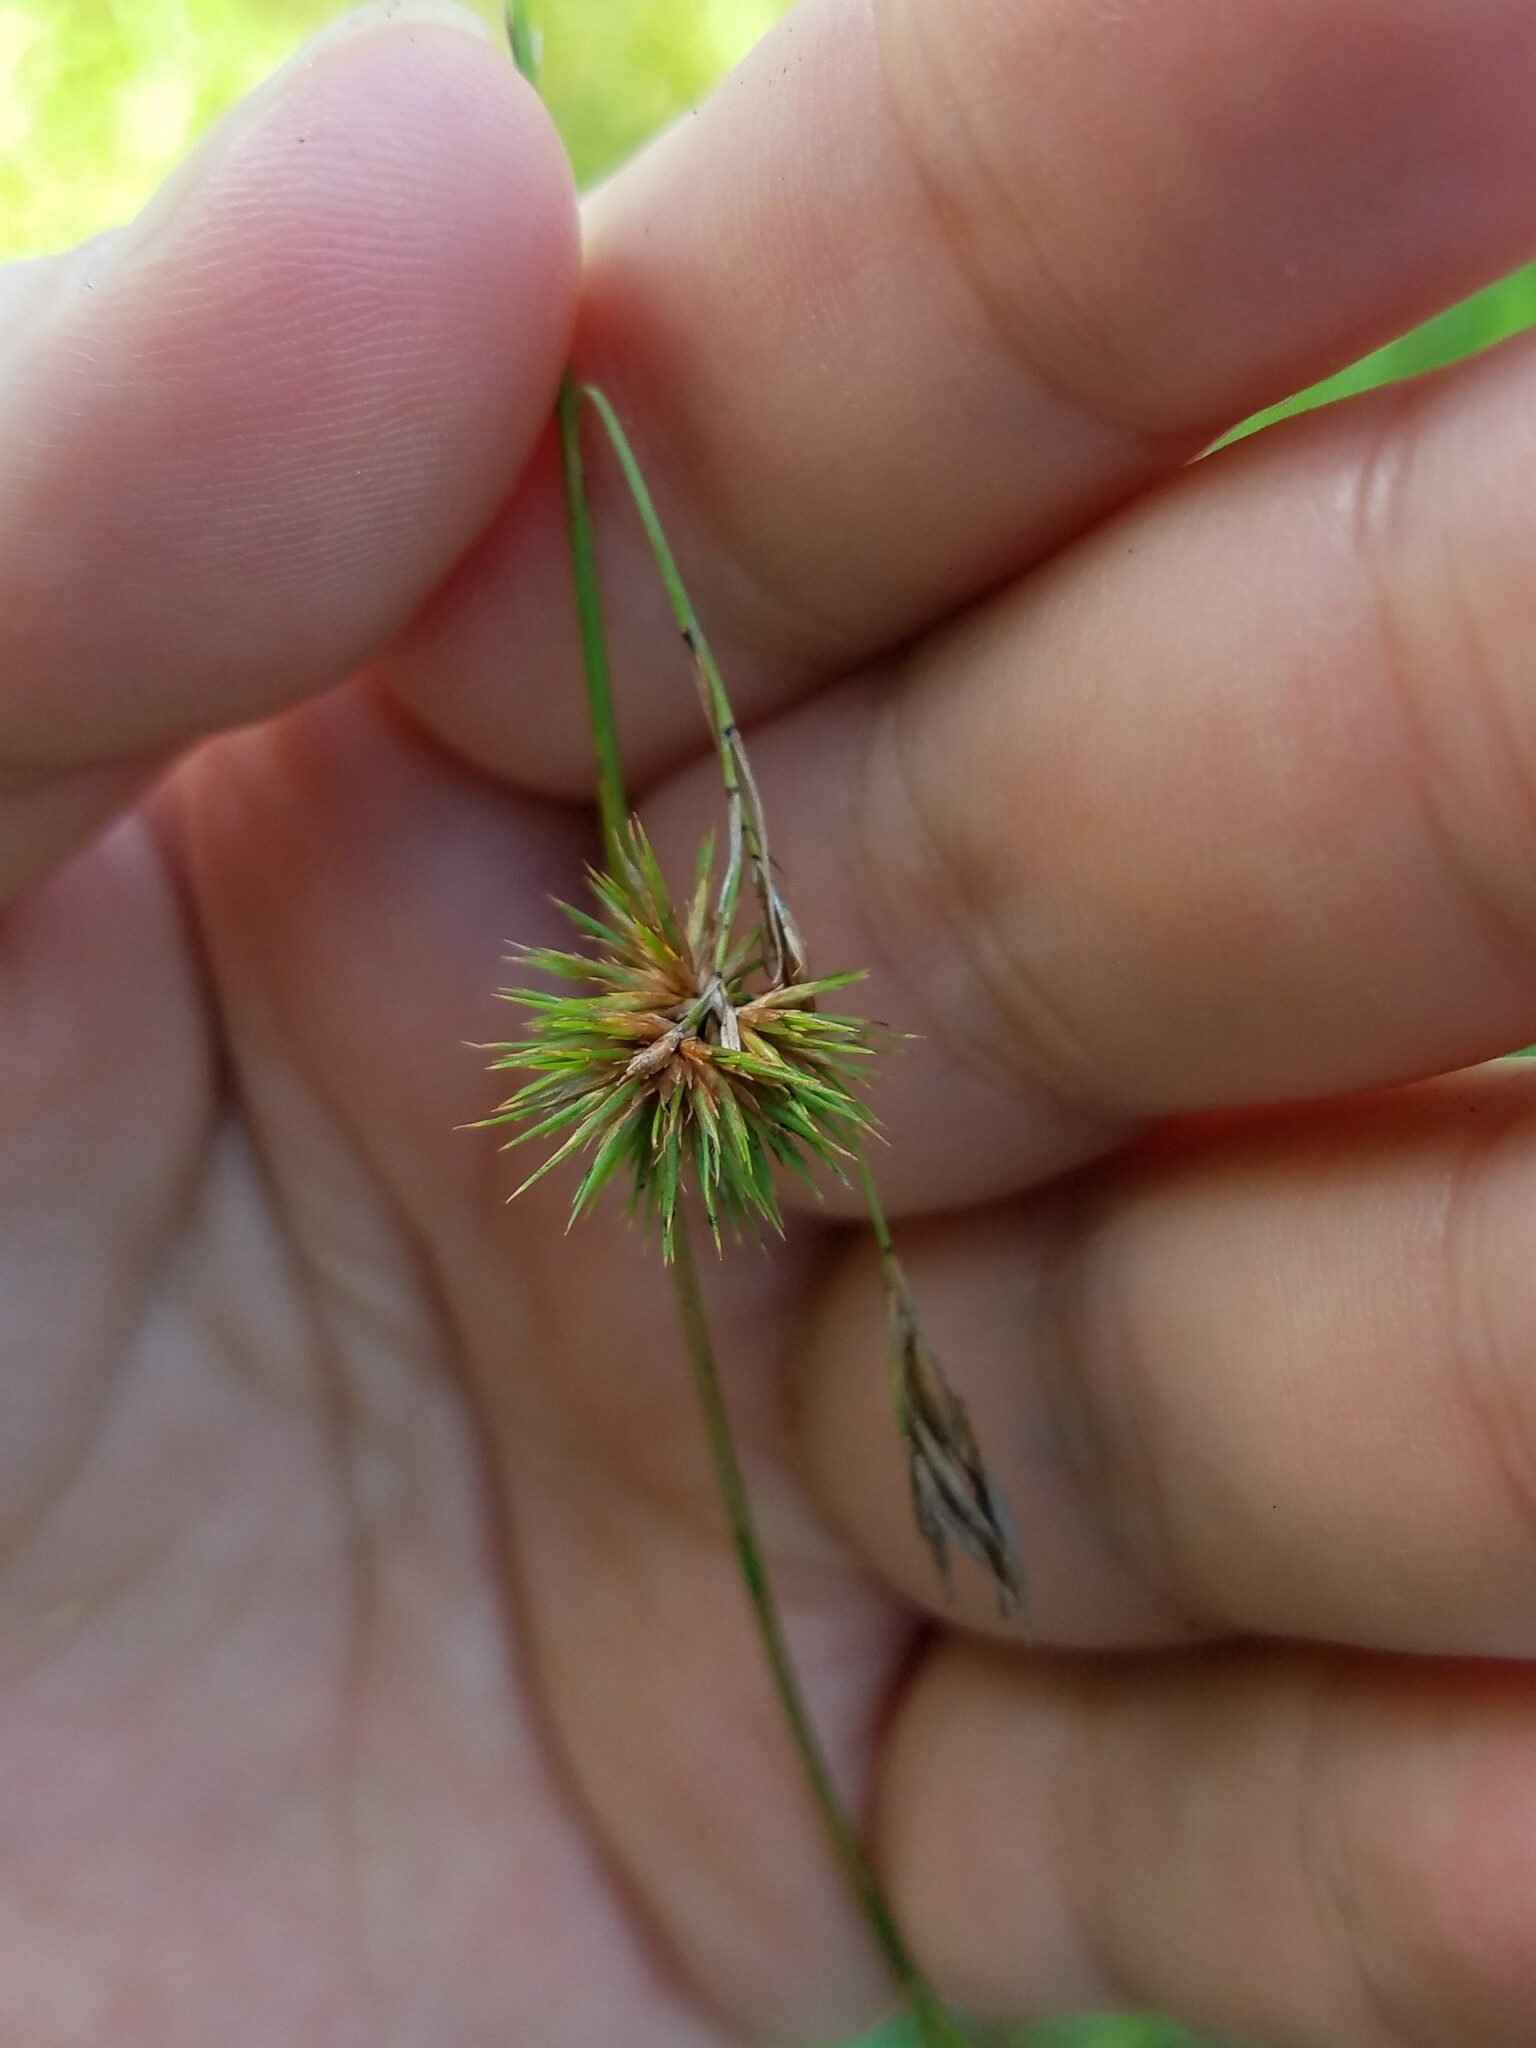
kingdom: Plantae
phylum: Tracheophyta
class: Liliopsida
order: Poales
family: Cyperaceae
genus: Rhynchospora
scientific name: Rhynchospora inexpansa
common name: Nodding beaksedge
